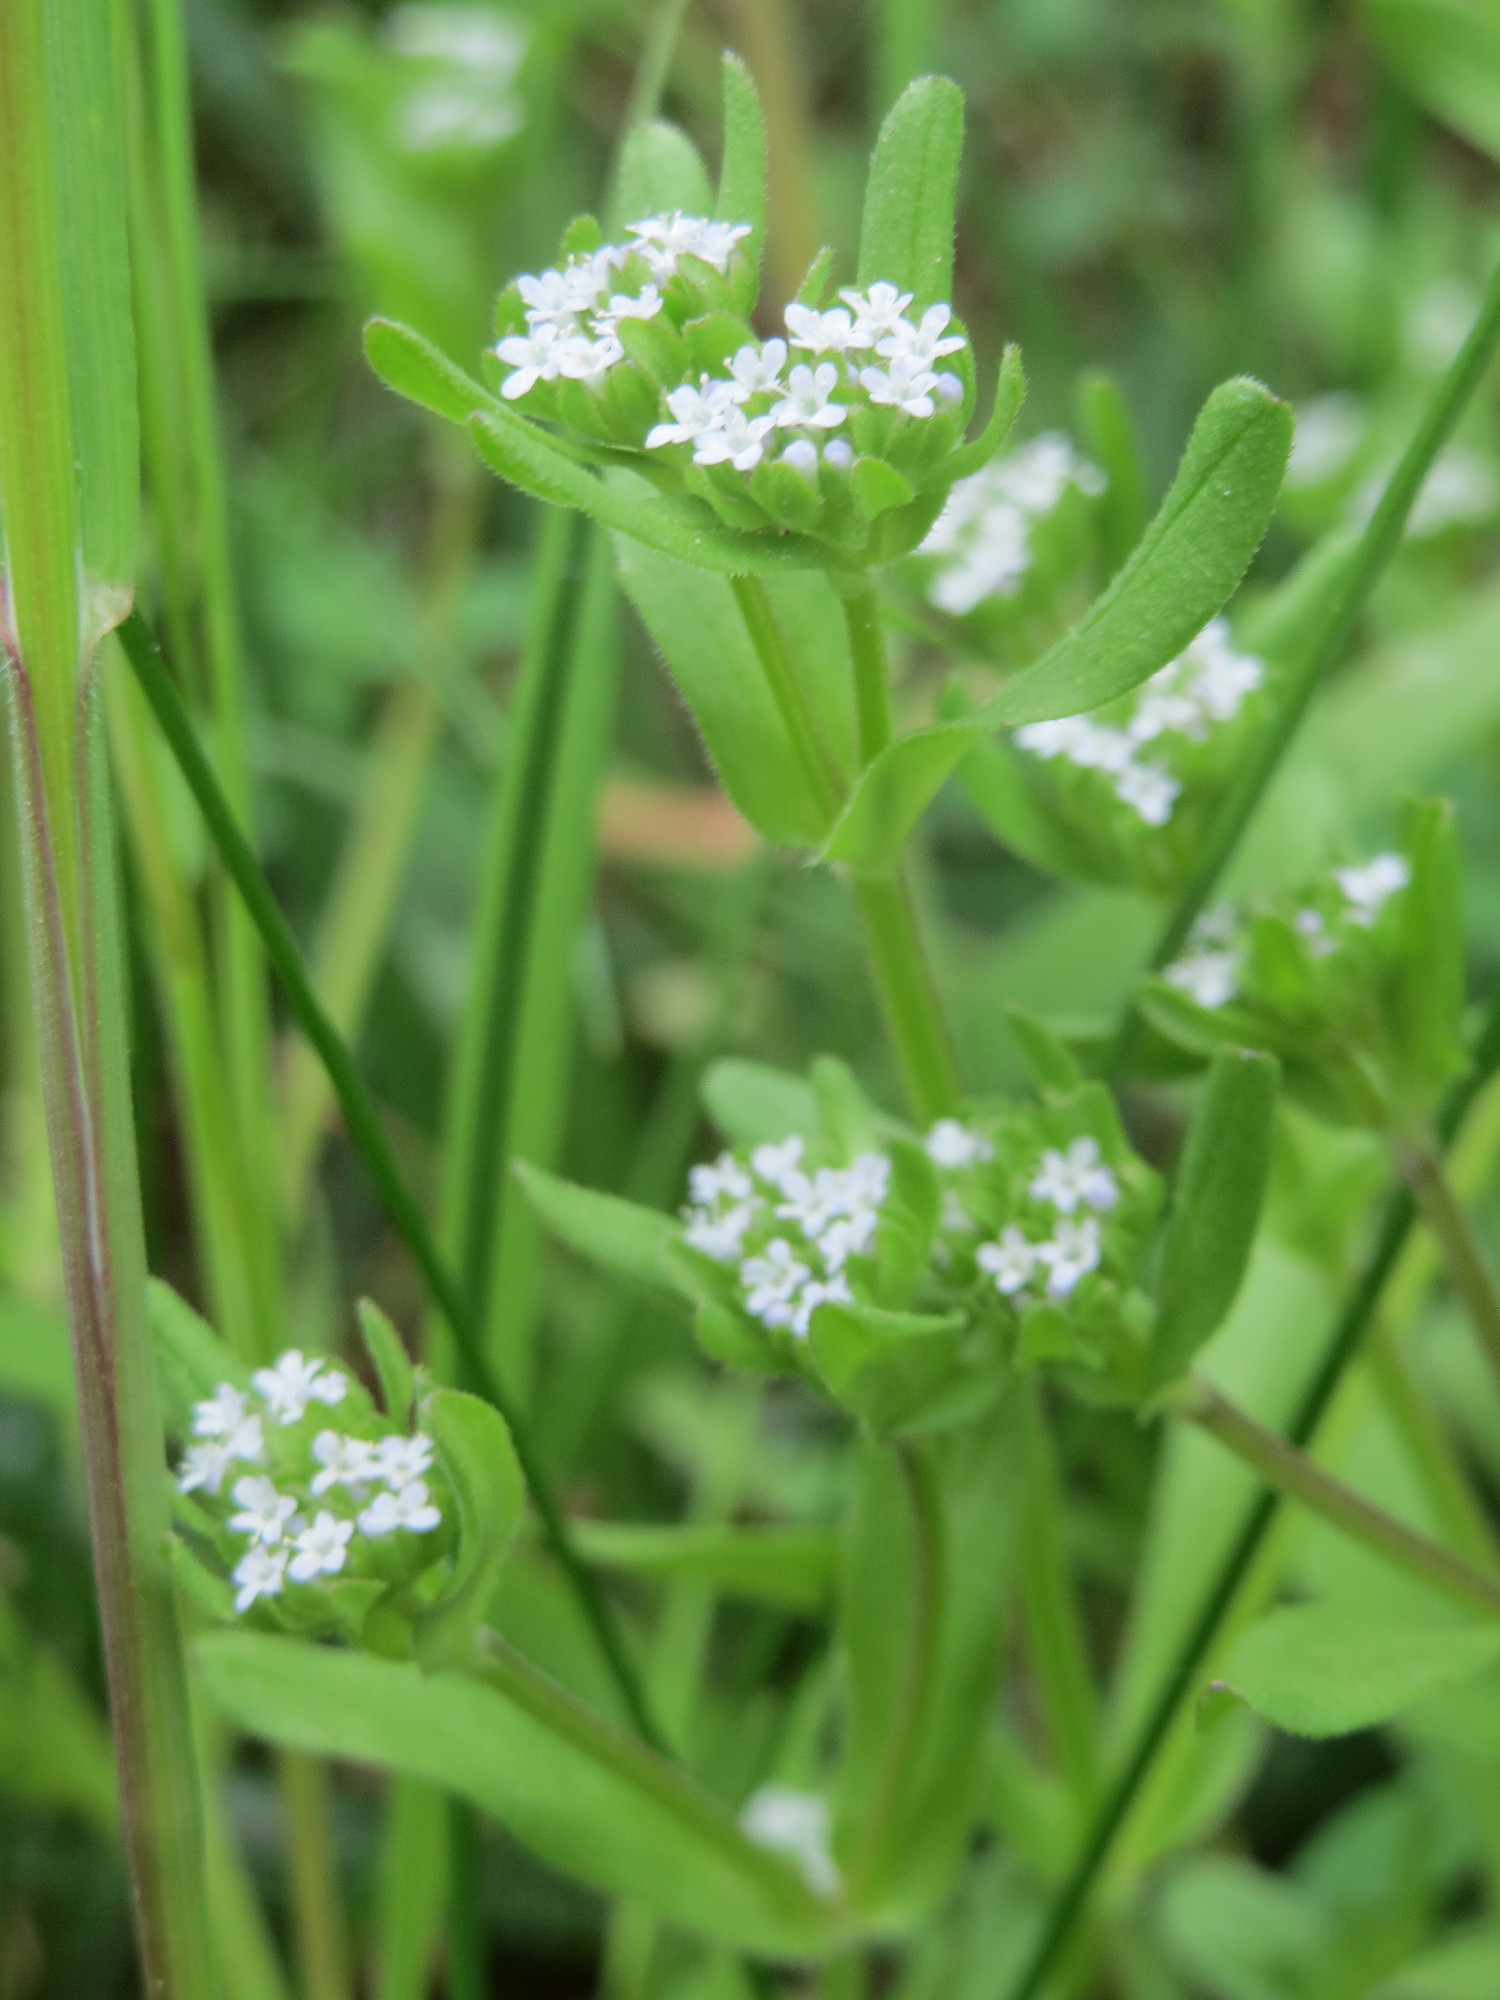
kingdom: Plantae
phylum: Tracheophyta
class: Magnoliopsida
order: Dipsacales
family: Caprifoliaceae
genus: Valerianella
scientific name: Valerianella locusta
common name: Common cornsalad
